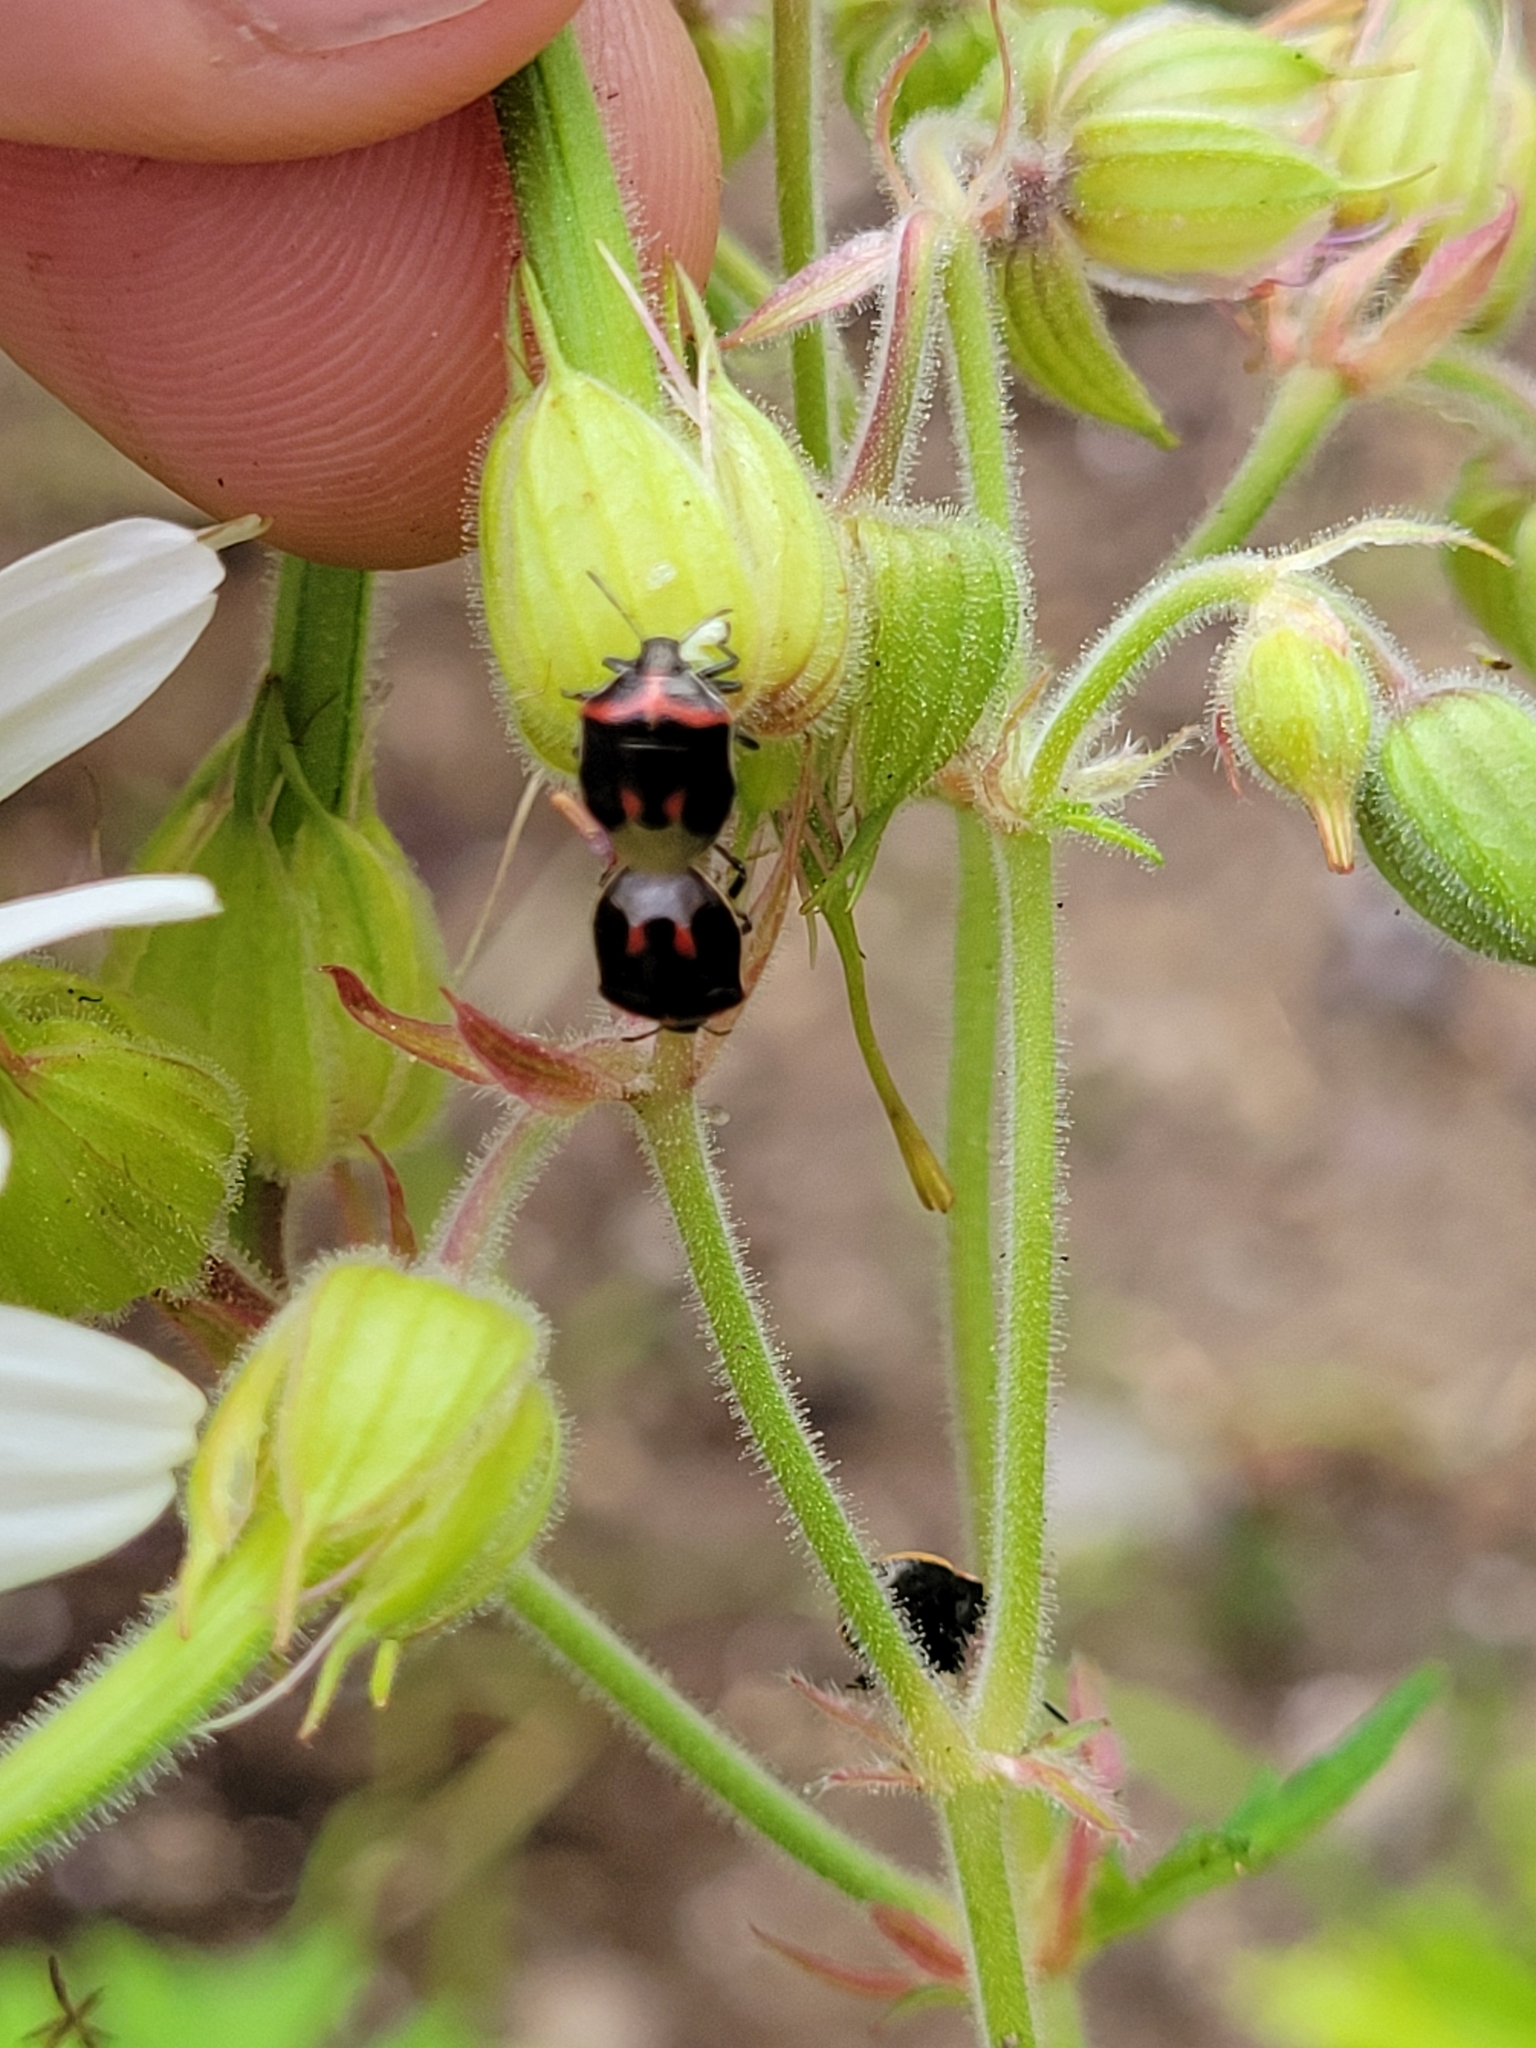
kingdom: Animalia
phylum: Arthropoda
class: Insecta
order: Hemiptera
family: Pentatomidae
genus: Cosmopepla
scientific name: Cosmopepla lintneriana
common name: Twice-stabbed stink bug
